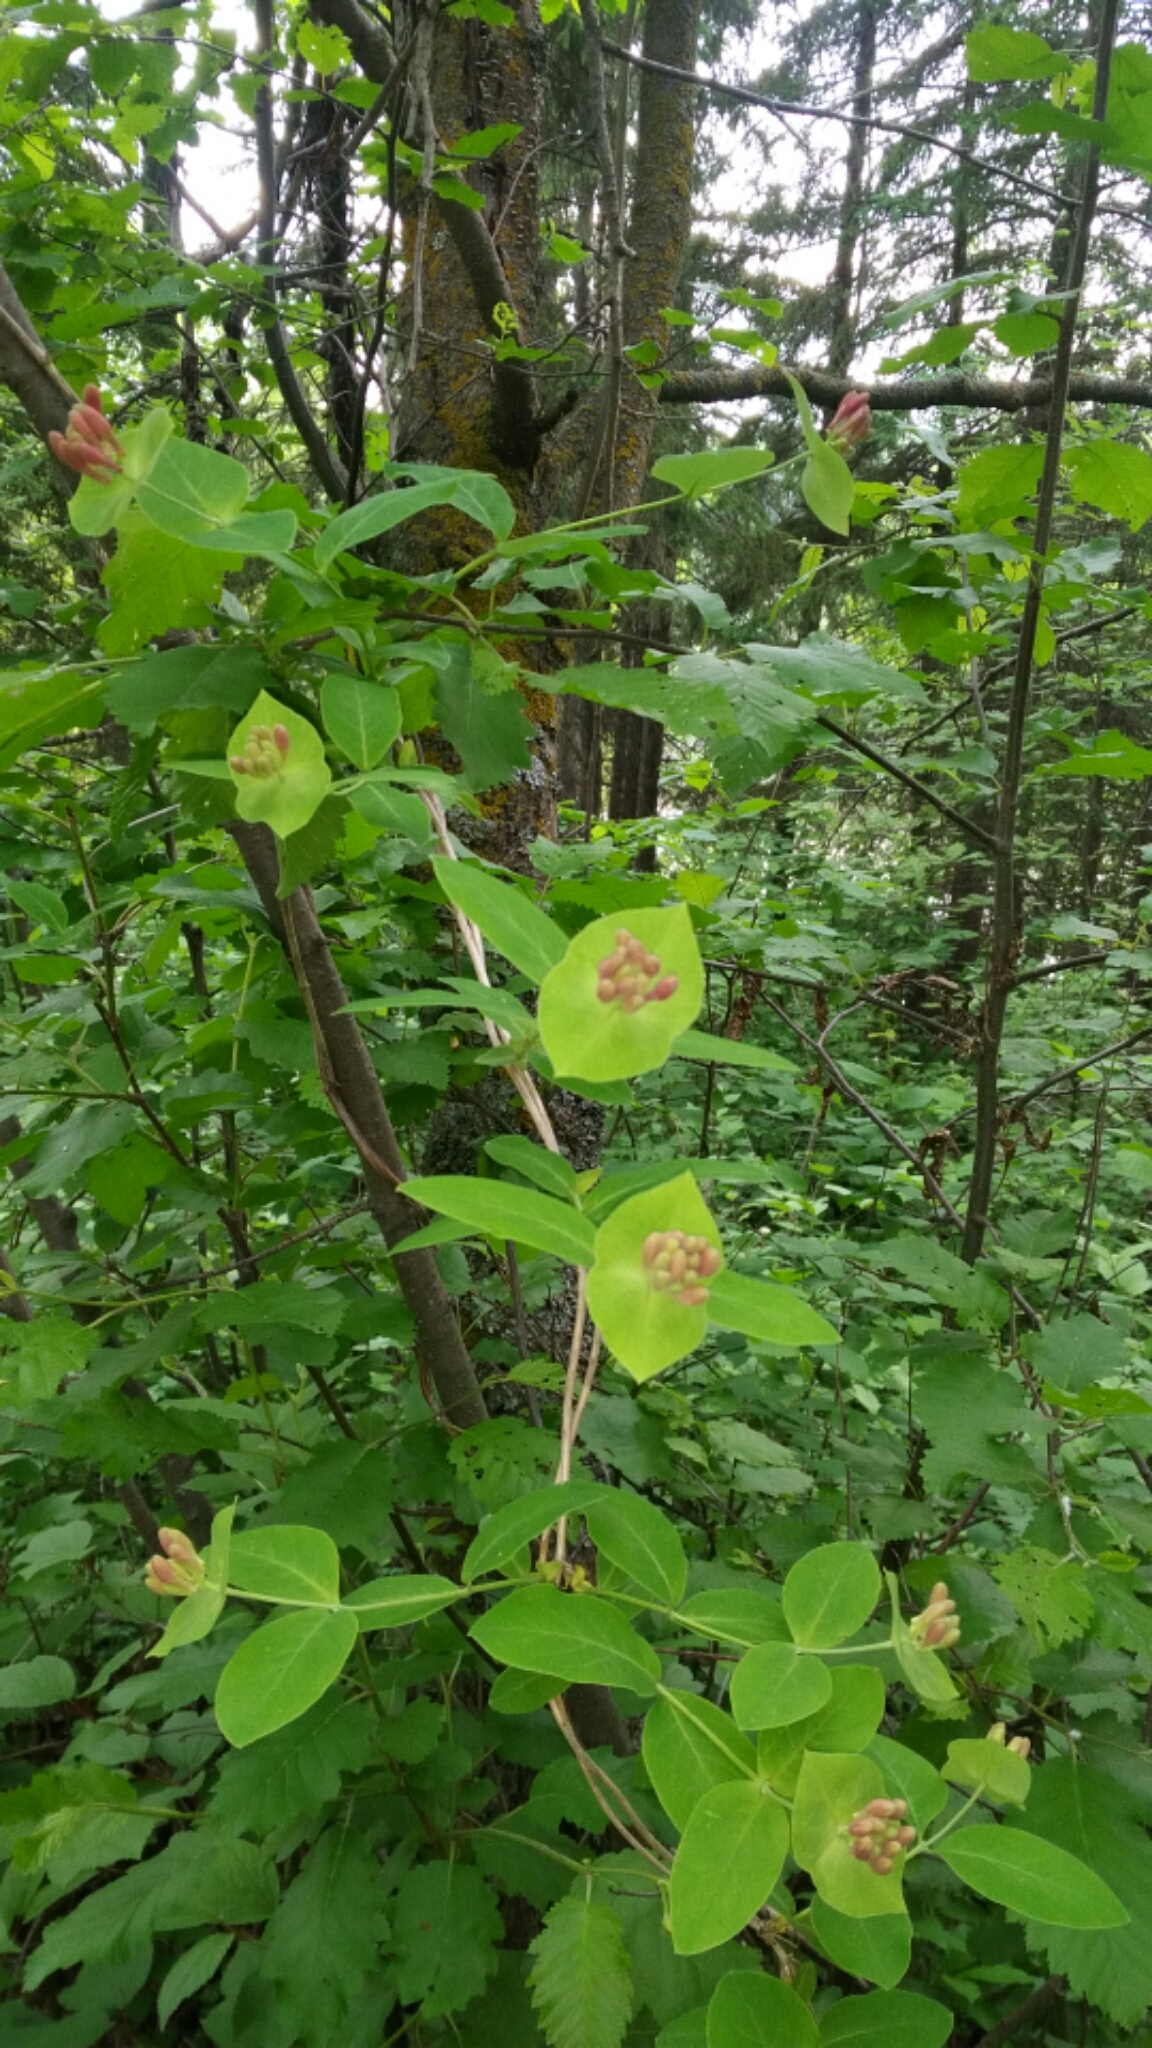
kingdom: Plantae
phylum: Tracheophyta
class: Magnoliopsida
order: Dipsacales
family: Caprifoliaceae
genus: Lonicera
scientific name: Lonicera dioica
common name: Limber honeysuckle
